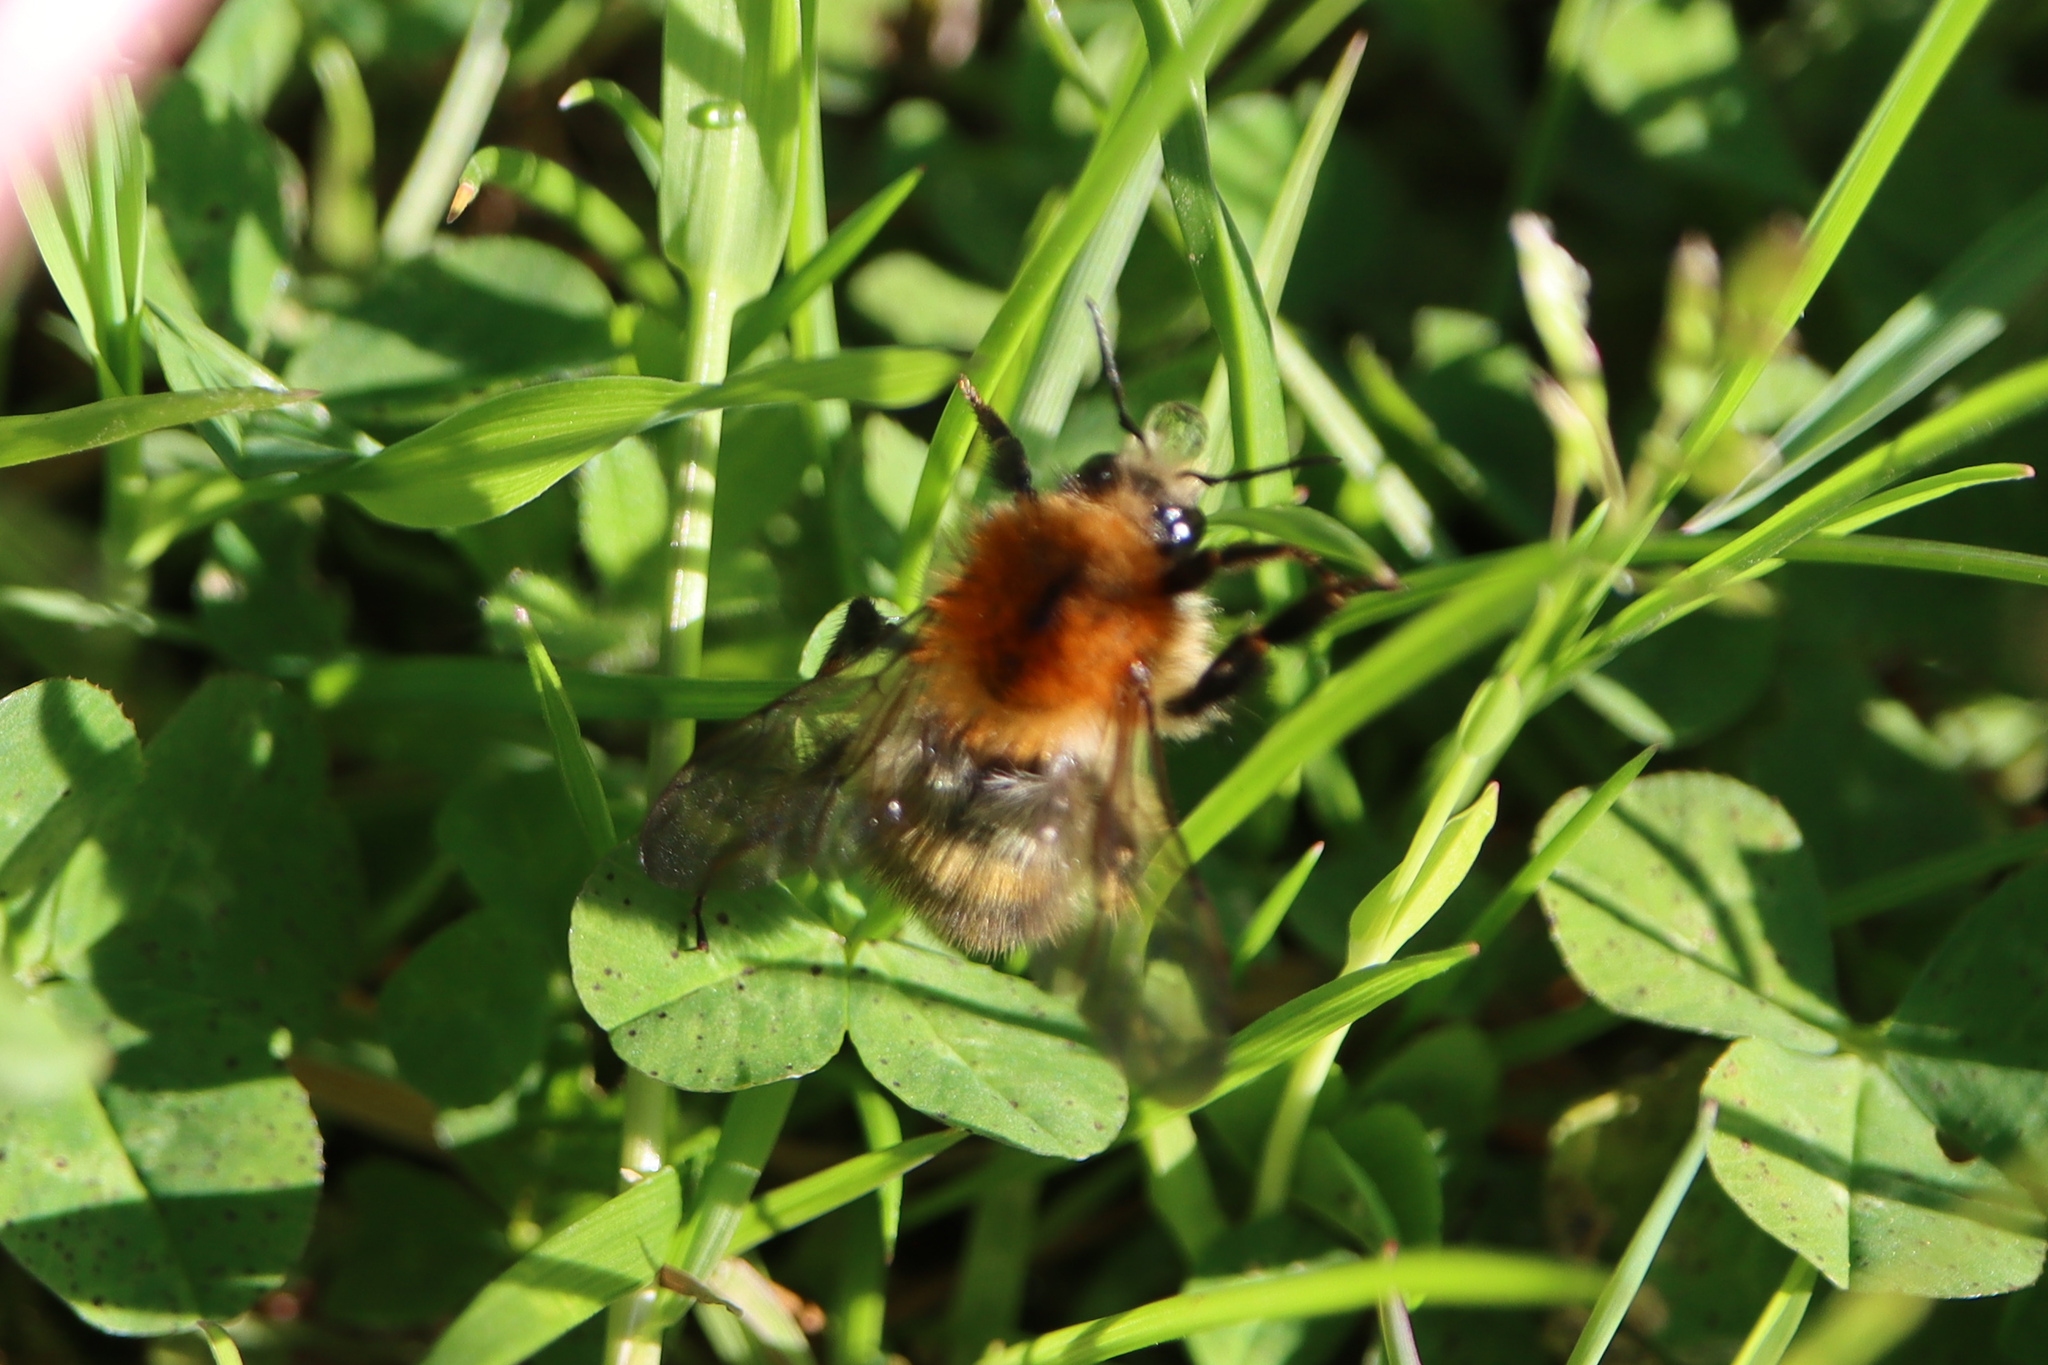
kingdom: Animalia
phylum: Arthropoda
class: Insecta
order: Hymenoptera
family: Apidae
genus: Bombus
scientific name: Bombus pascuorum
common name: Common carder bee
